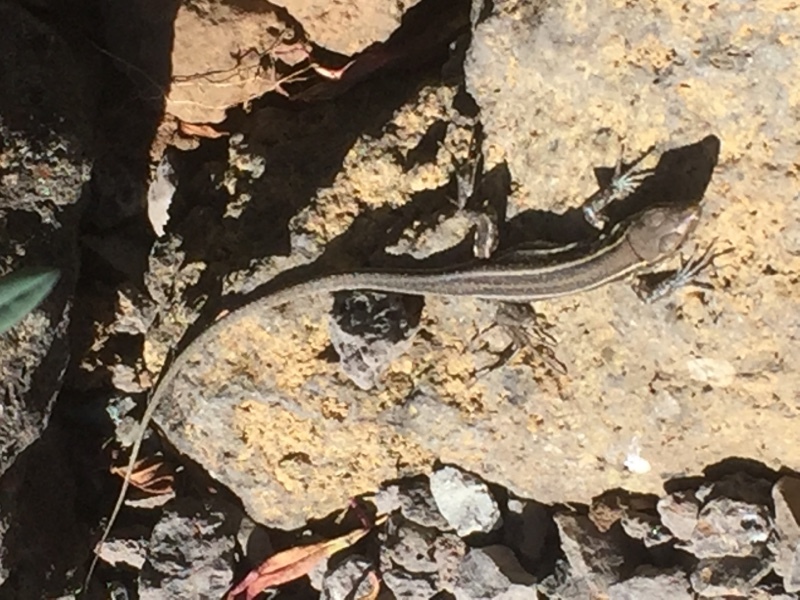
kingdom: Animalia
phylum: Chordata
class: Squamata
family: Lacertidae
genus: Gallotia
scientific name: Gallotia galloti
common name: Gallot's lizard
